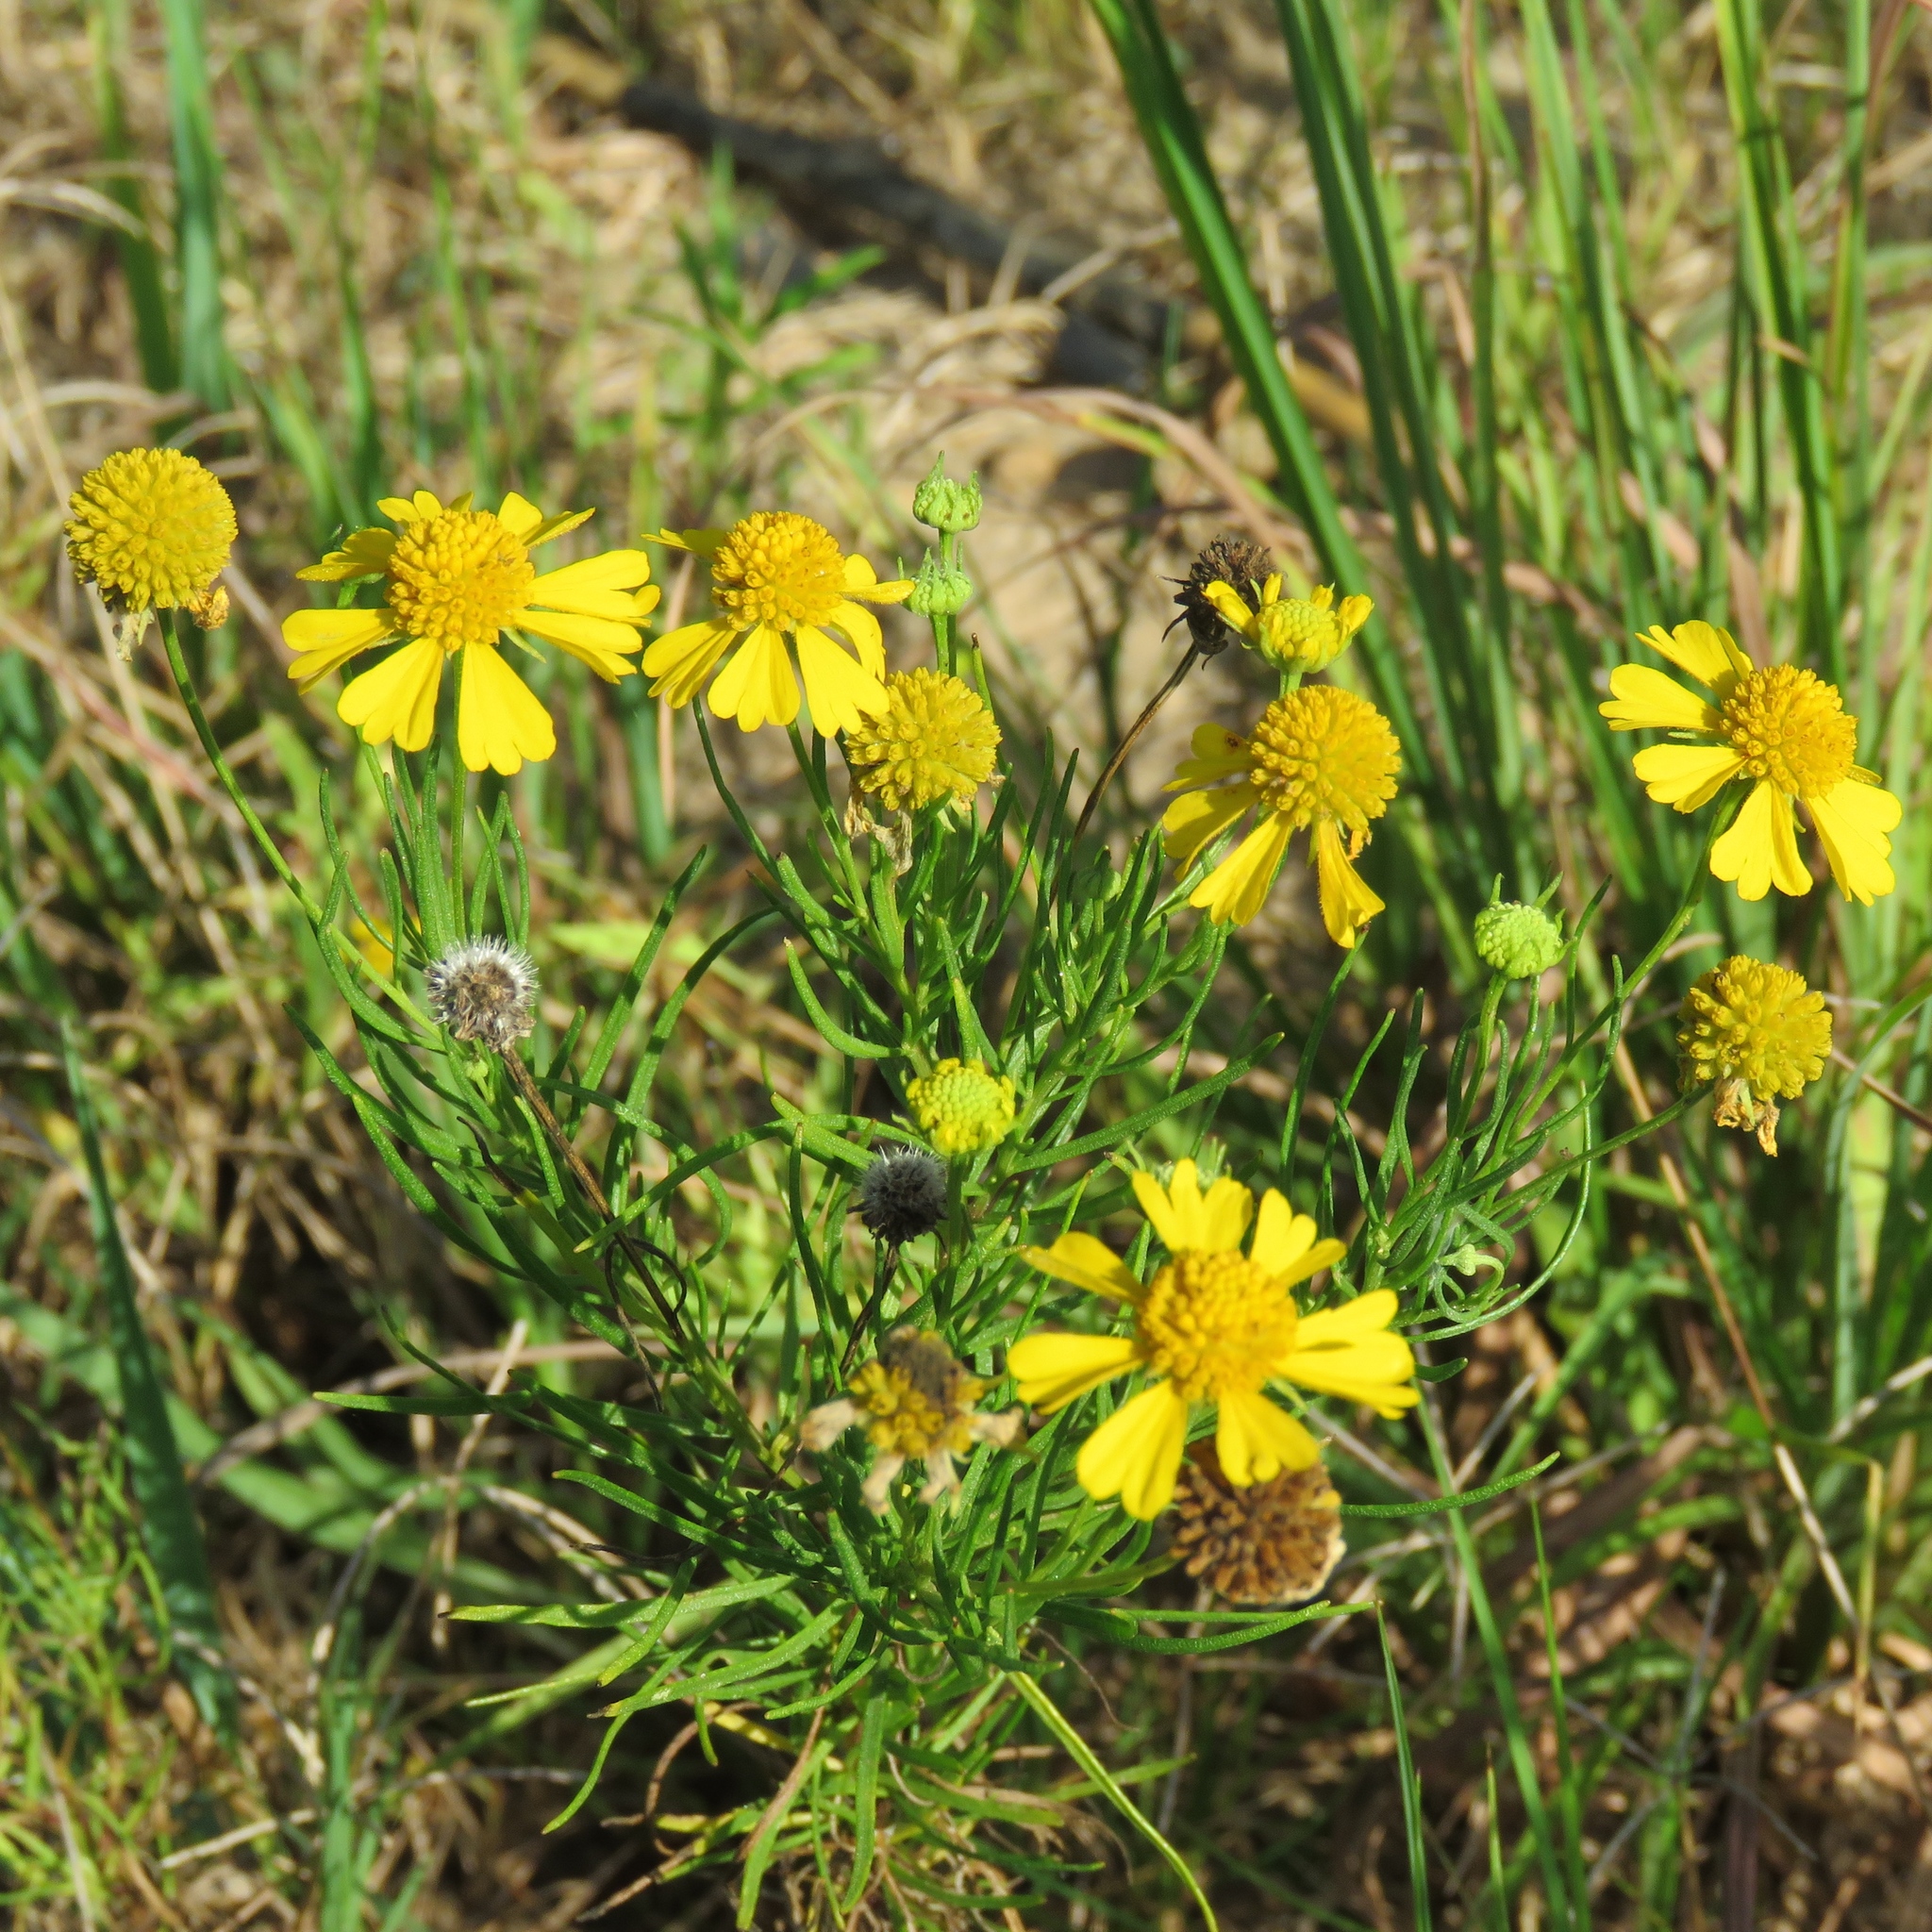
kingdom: Plantae
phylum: Tracheophyta
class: Magnoliopsida
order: Asterales
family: Asteraceae
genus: Helenium
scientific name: Helenium amarum
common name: Bitter sneezeweed
